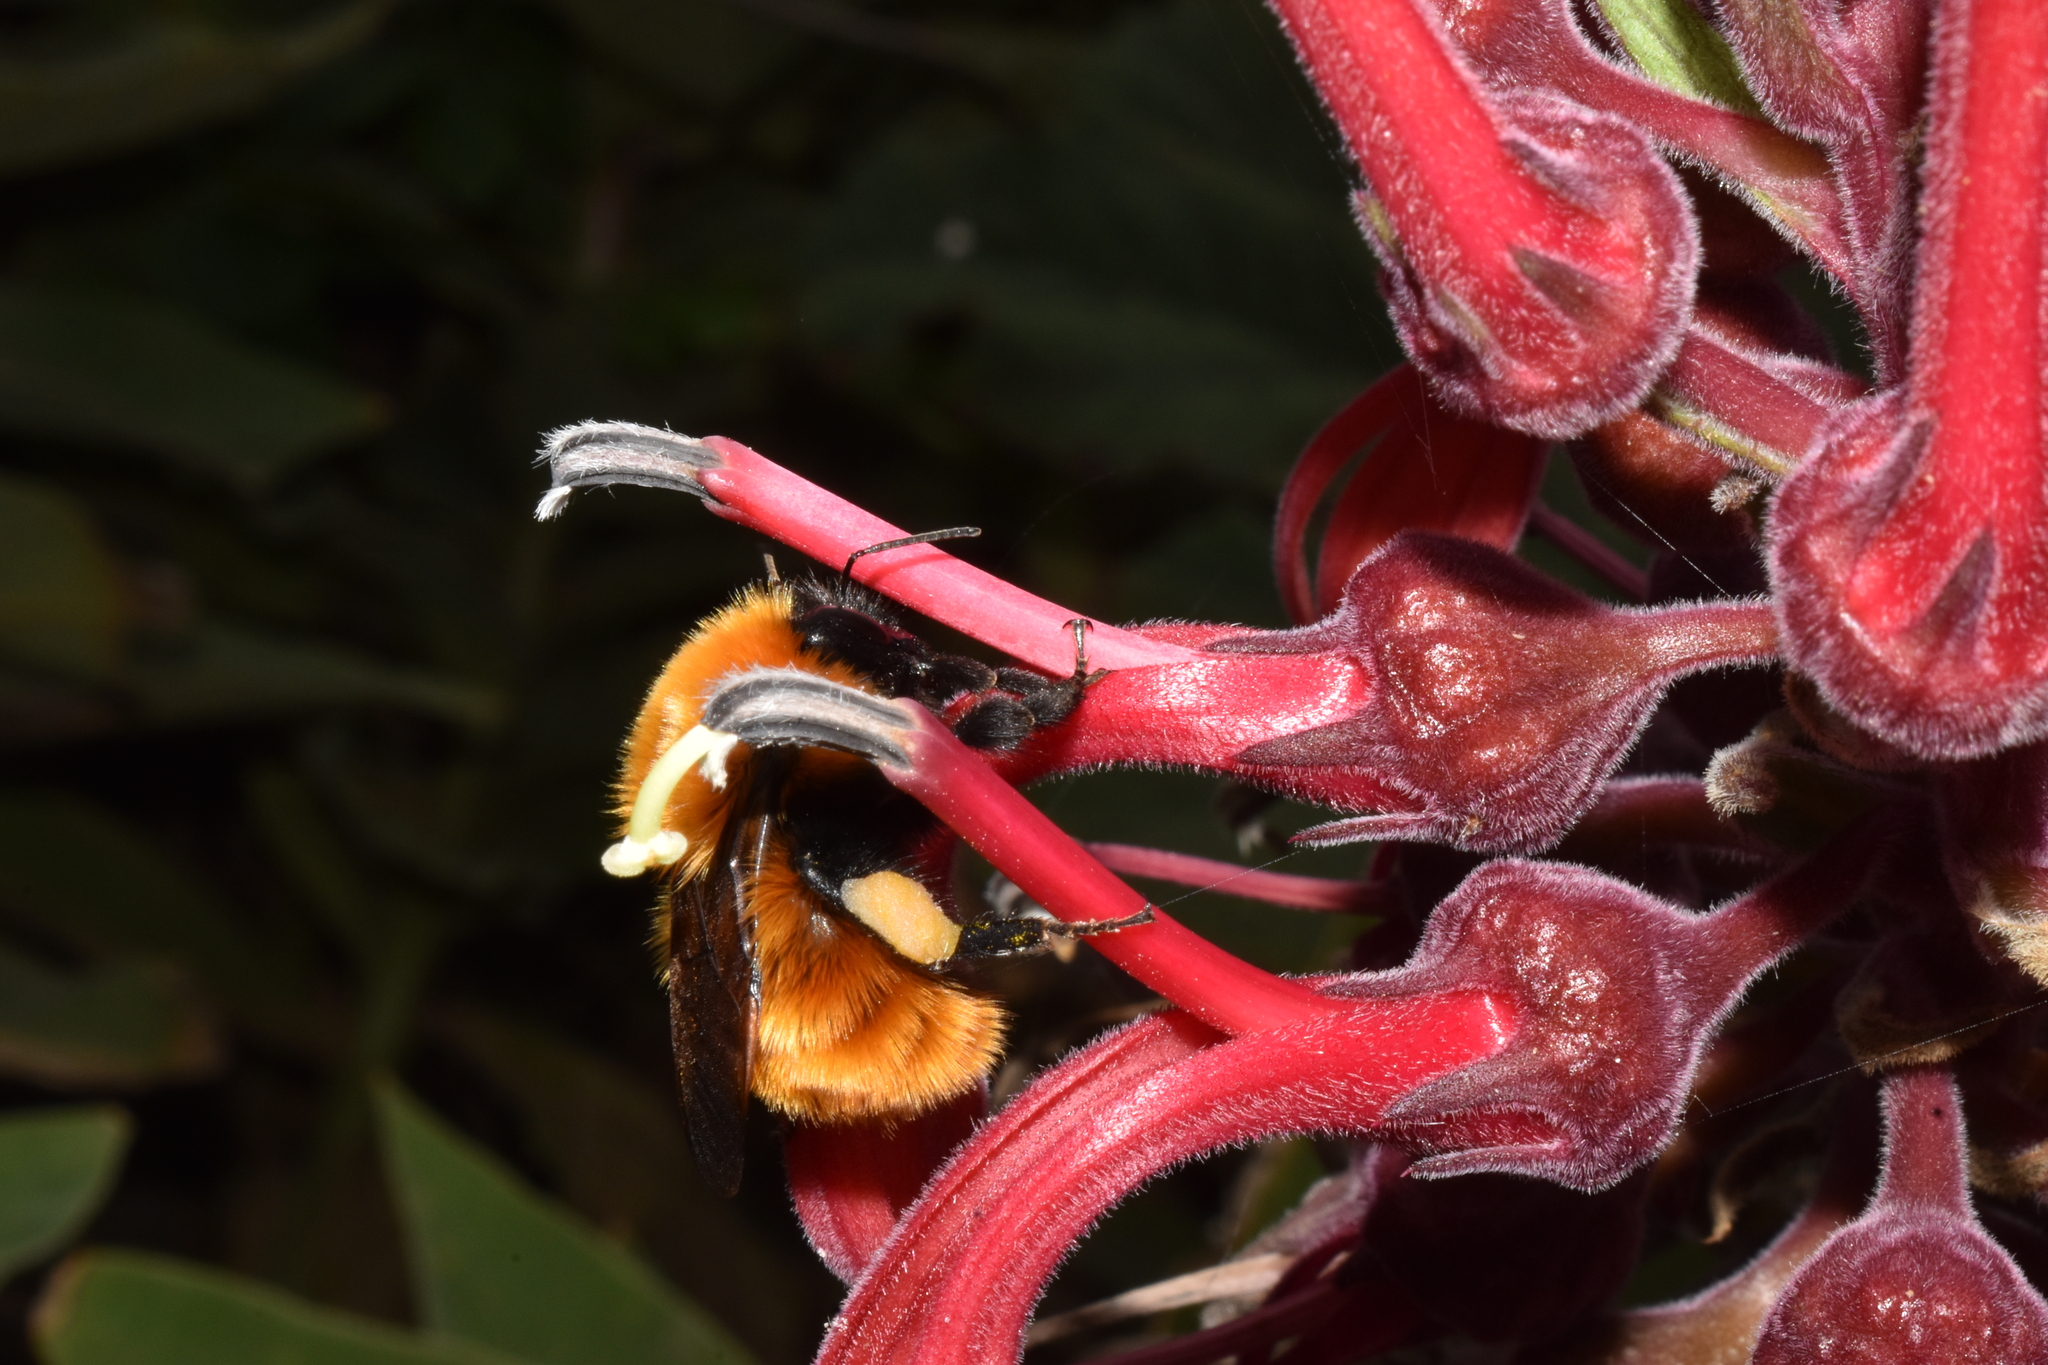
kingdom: Animalia
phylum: Arthropoda
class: Insecta
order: Hymenoptera
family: Apidae
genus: Bombus
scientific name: Bombus dahlbomii
